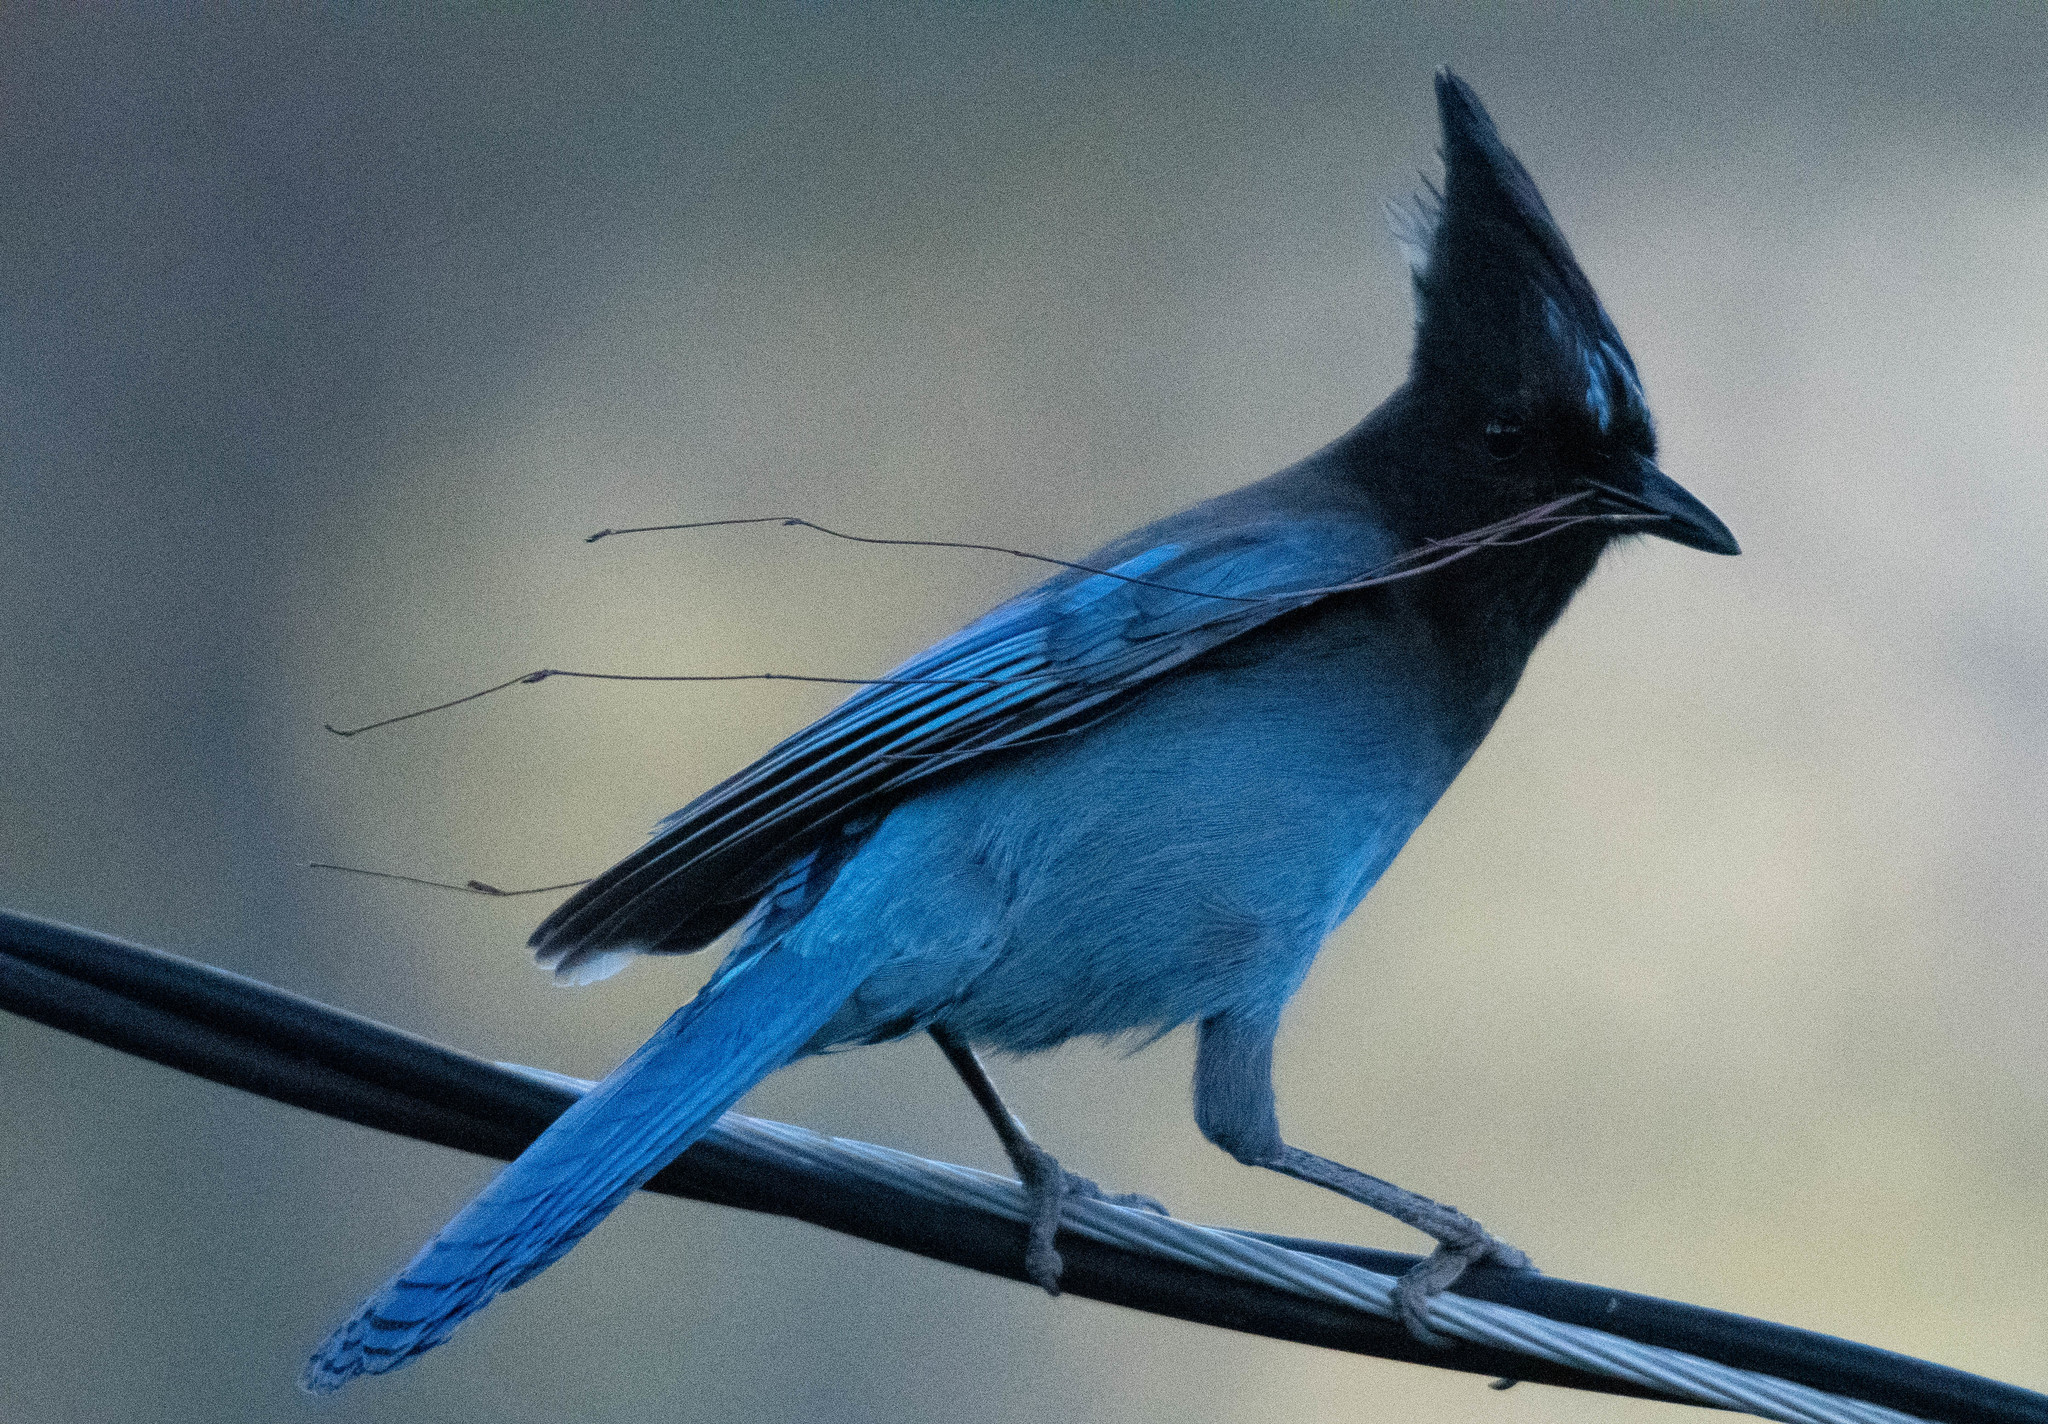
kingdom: Animalia
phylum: Chordata
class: Aves
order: Passeriformes
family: Corvidae
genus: Cyanocitta
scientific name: Cyanocitta stelleri
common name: Steller's jay
